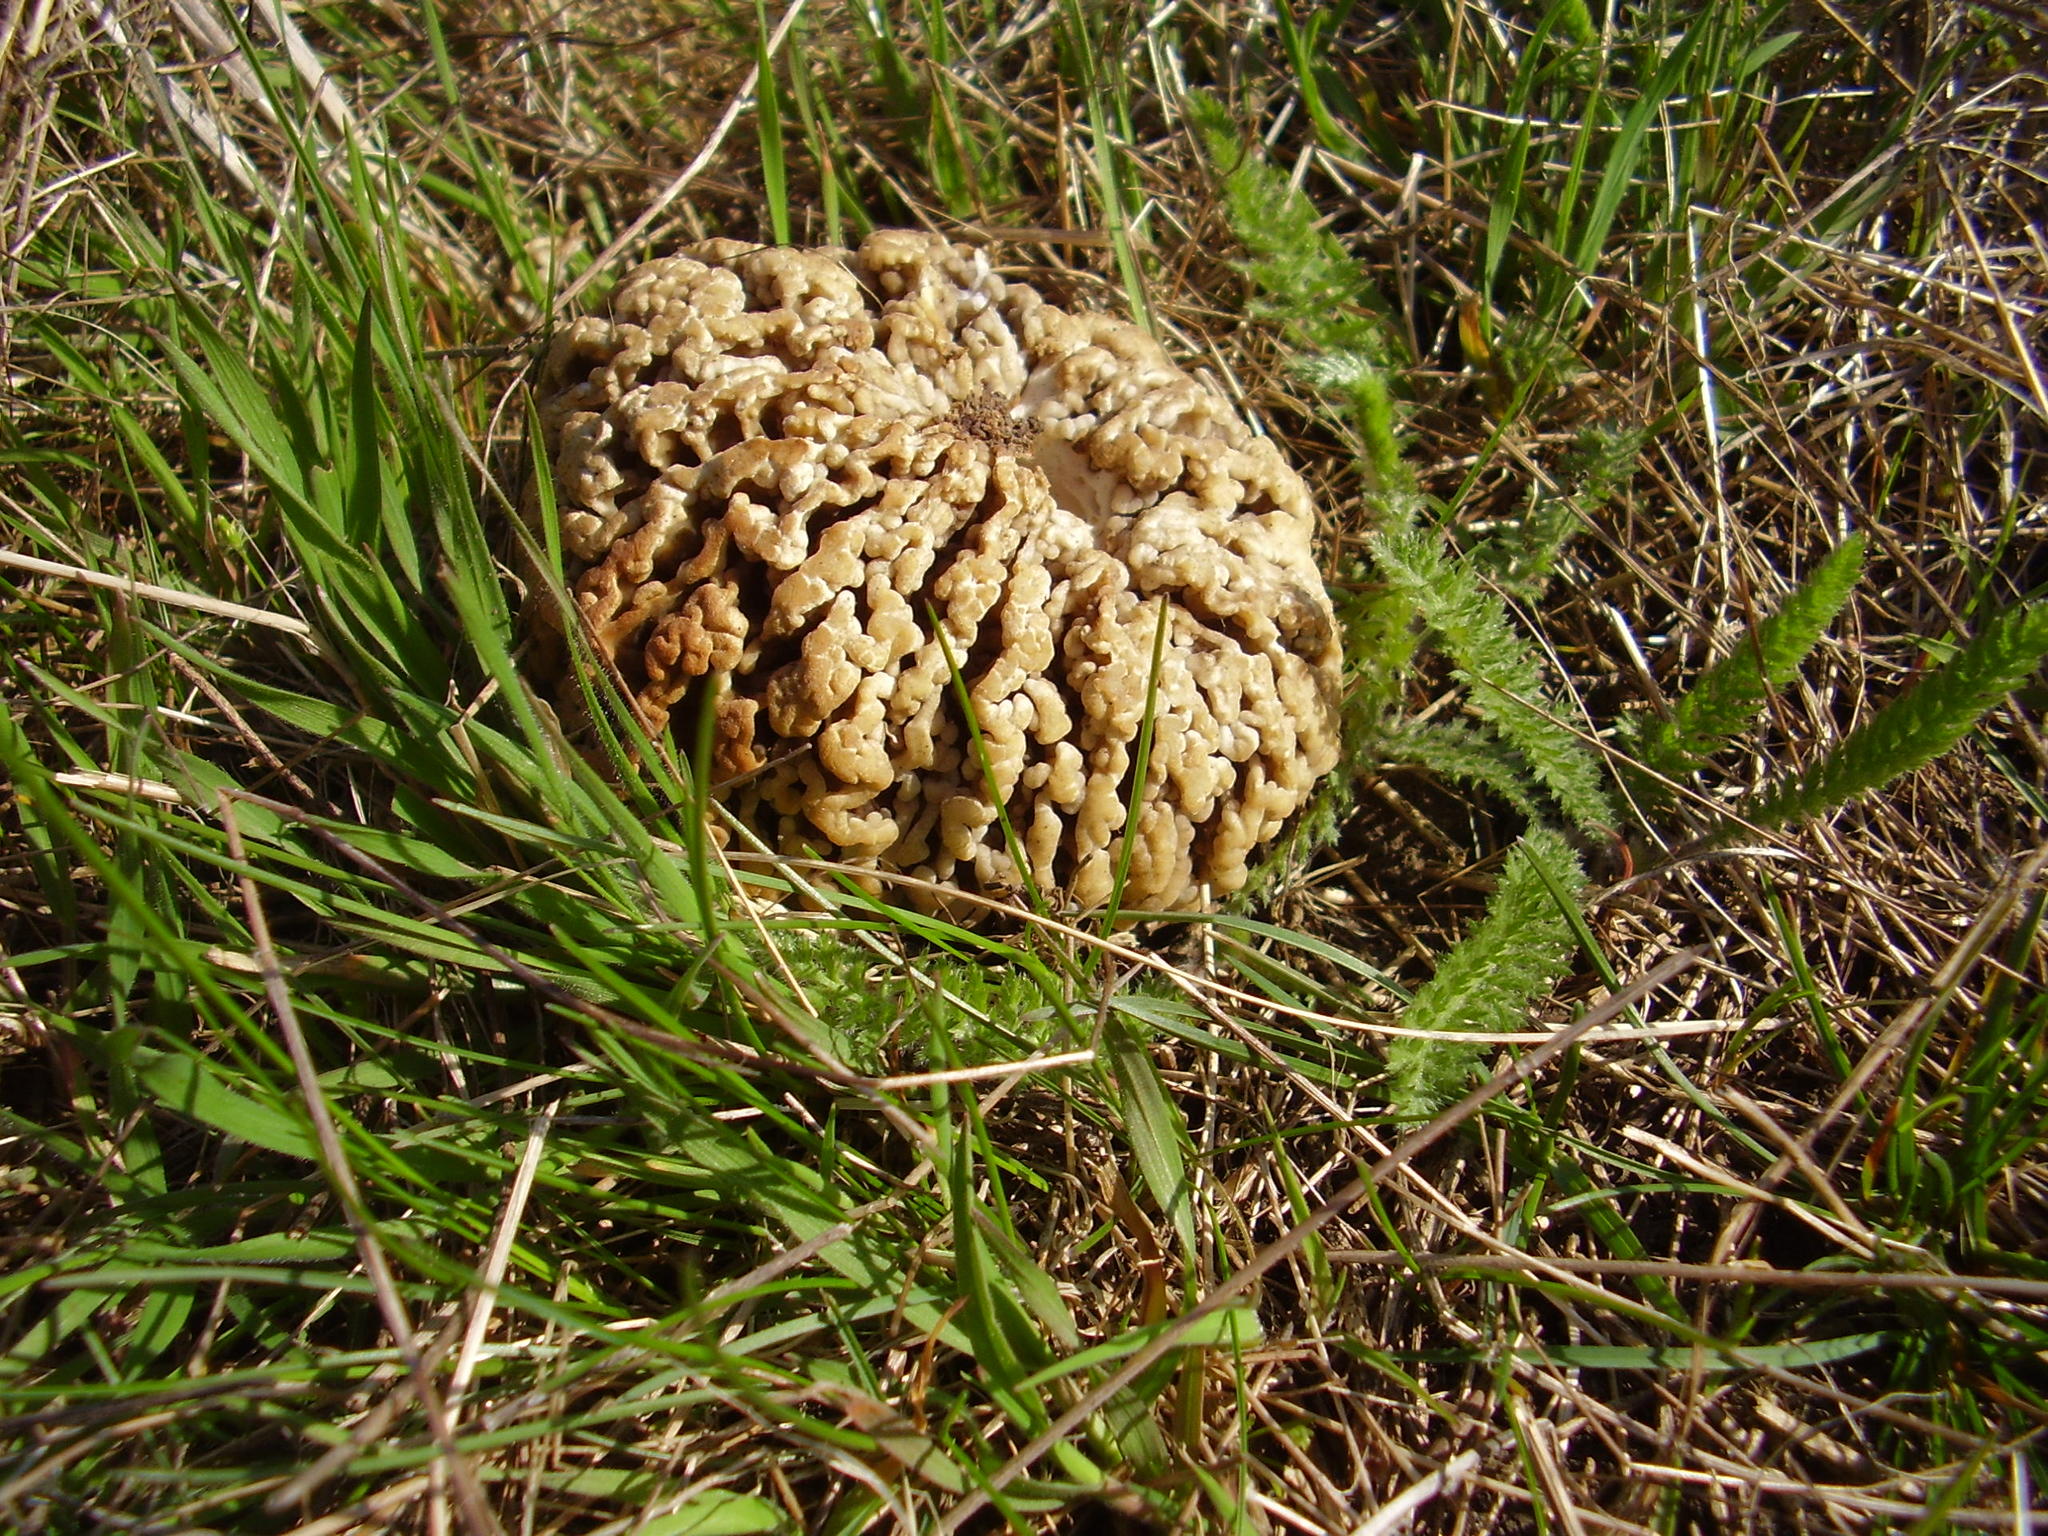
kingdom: Fungi
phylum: Ascomycota
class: Pezizomycetes
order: Pezizales
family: Morchellaceae
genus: Morchella
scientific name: Morchella steppicola
